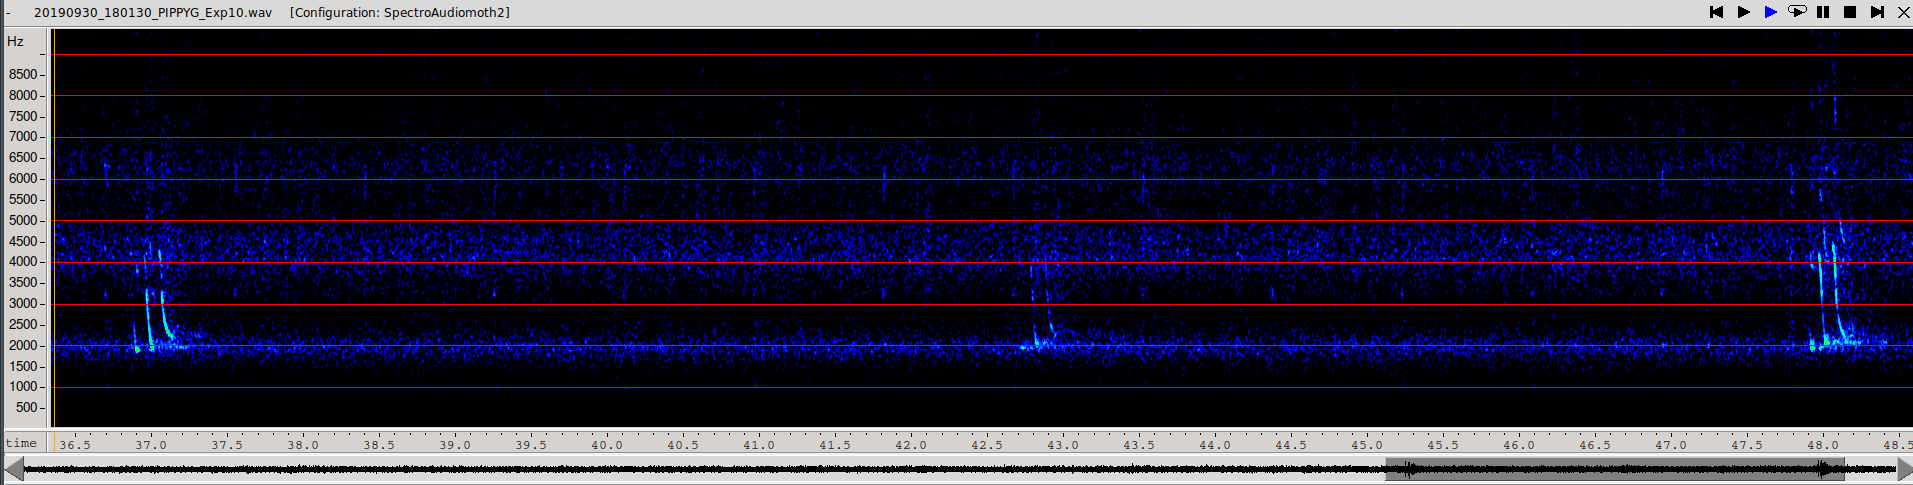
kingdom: Animalia
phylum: Chordata
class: Mammalia
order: Chiroptera
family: Vespertilionidae
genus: Pipistrellus
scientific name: Pipistrellus pygmaeus
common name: Soprano pipistrelle
